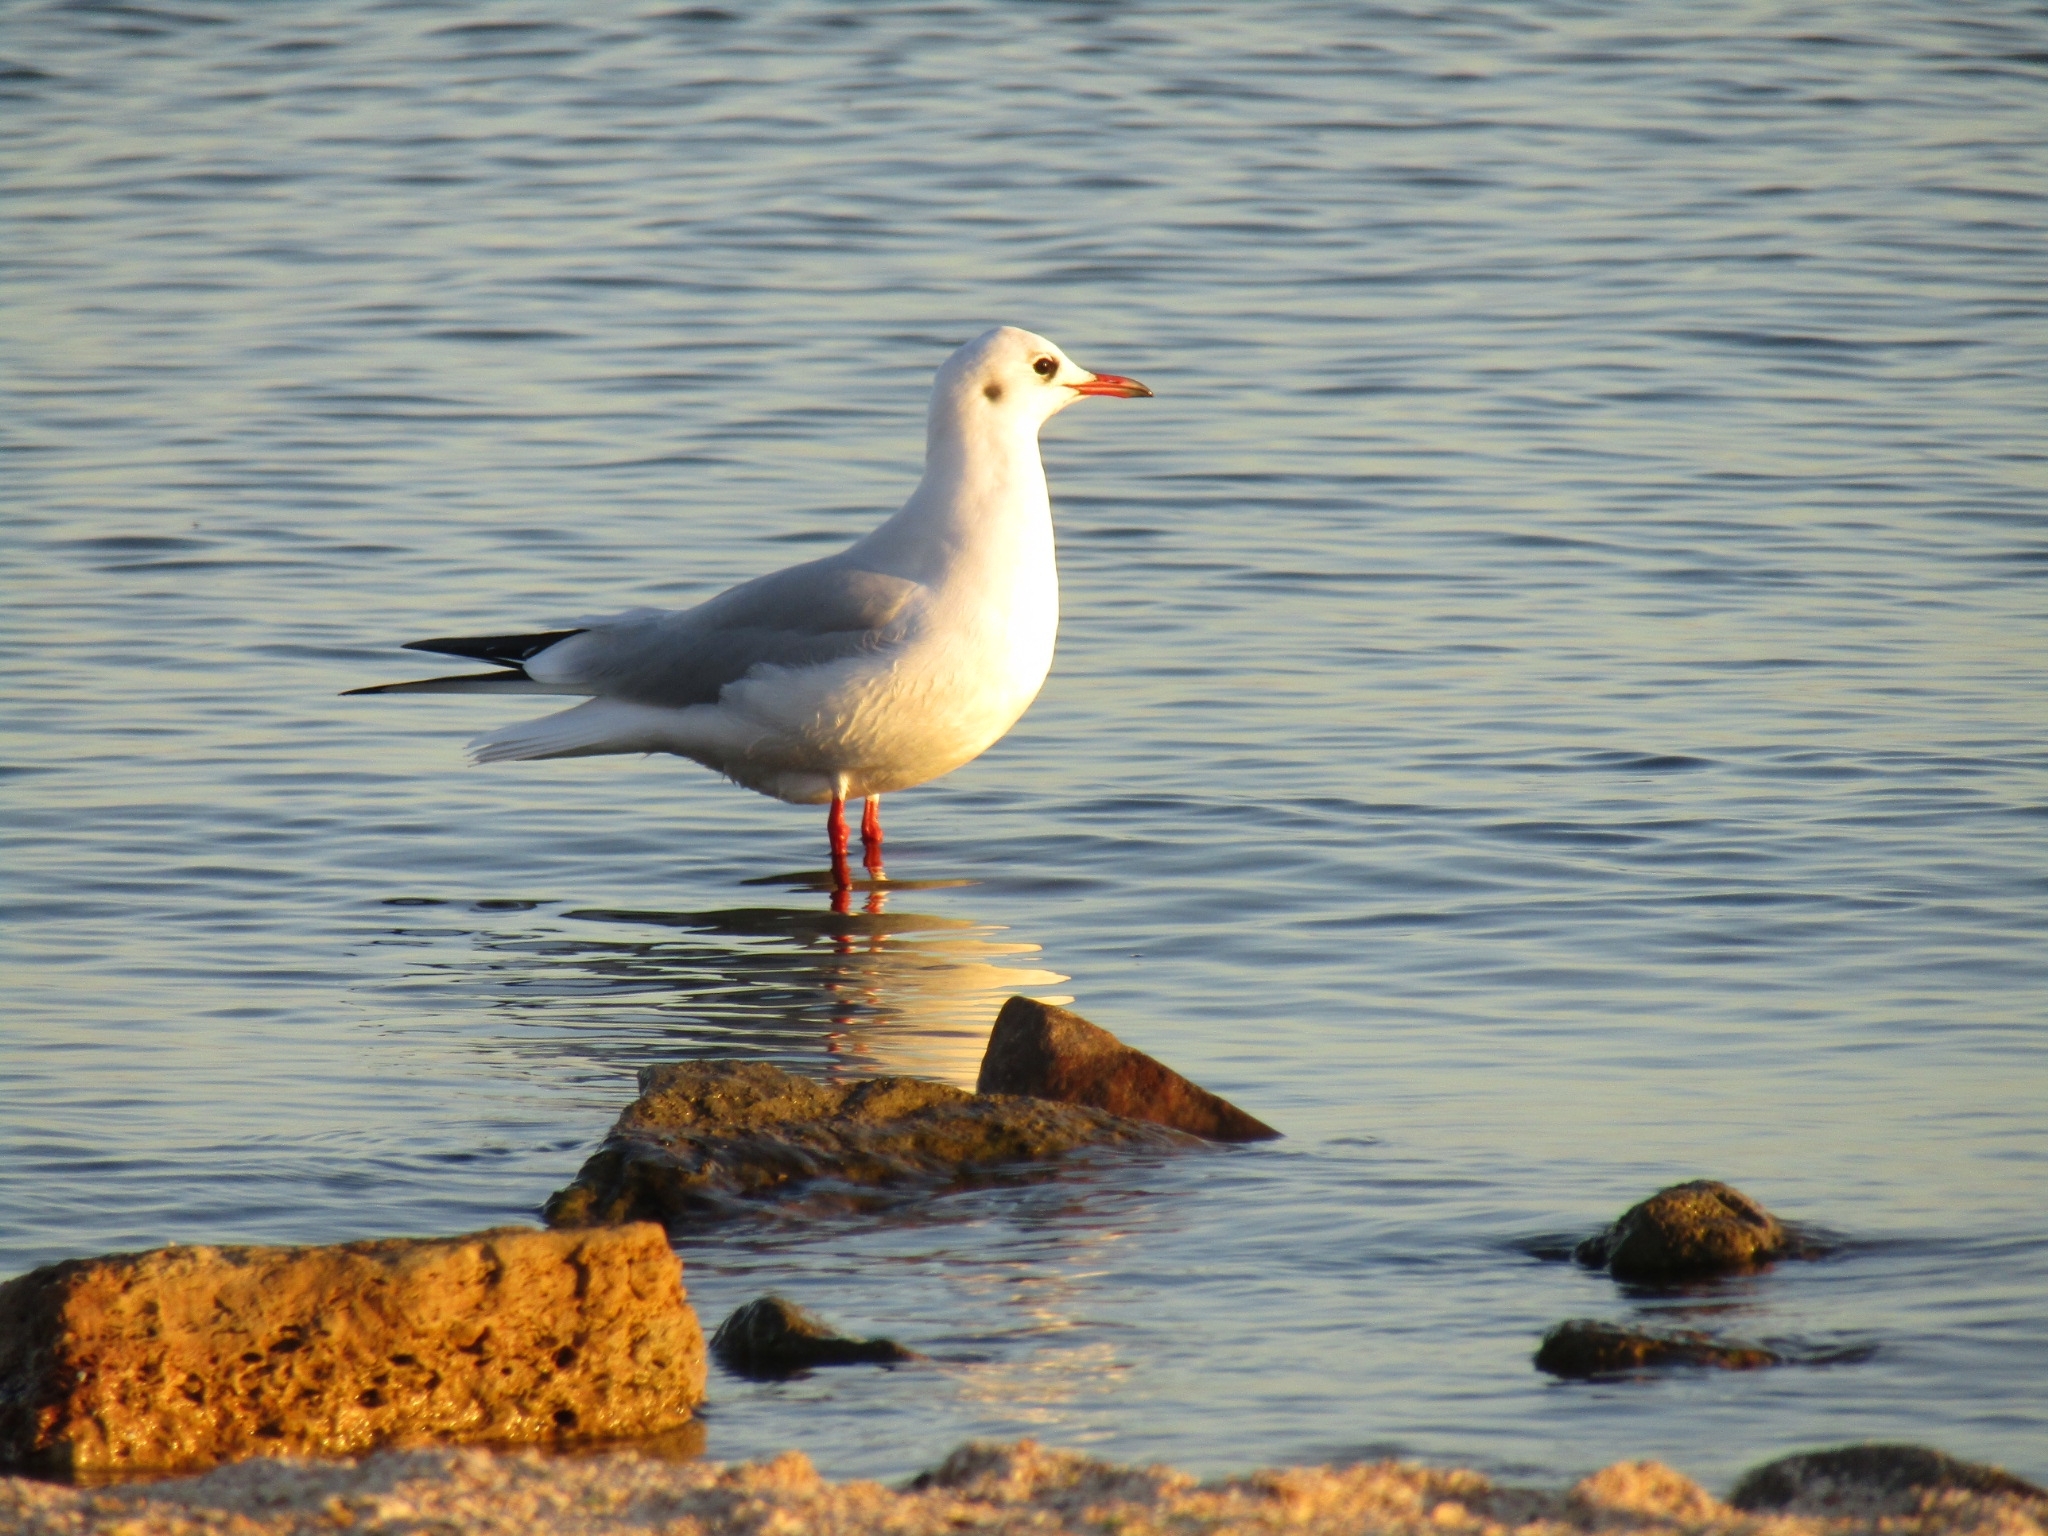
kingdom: Animalia
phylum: Chordata
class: Aves
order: Charadriiformes
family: Laridae
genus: Chroicocephalus
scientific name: Chroicocephalus ridibundus
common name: Black-headed gull
